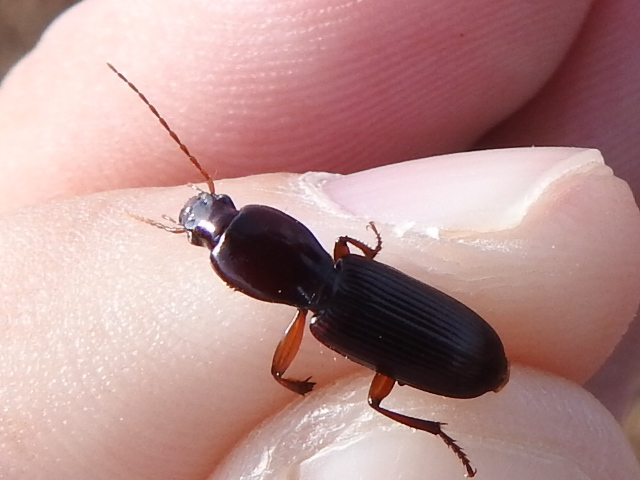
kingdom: Animalia
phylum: Arthropoda
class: Insecta
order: Coleoptera
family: Carabidae
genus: Stenomorphus
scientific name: Stenomorphus californicus
